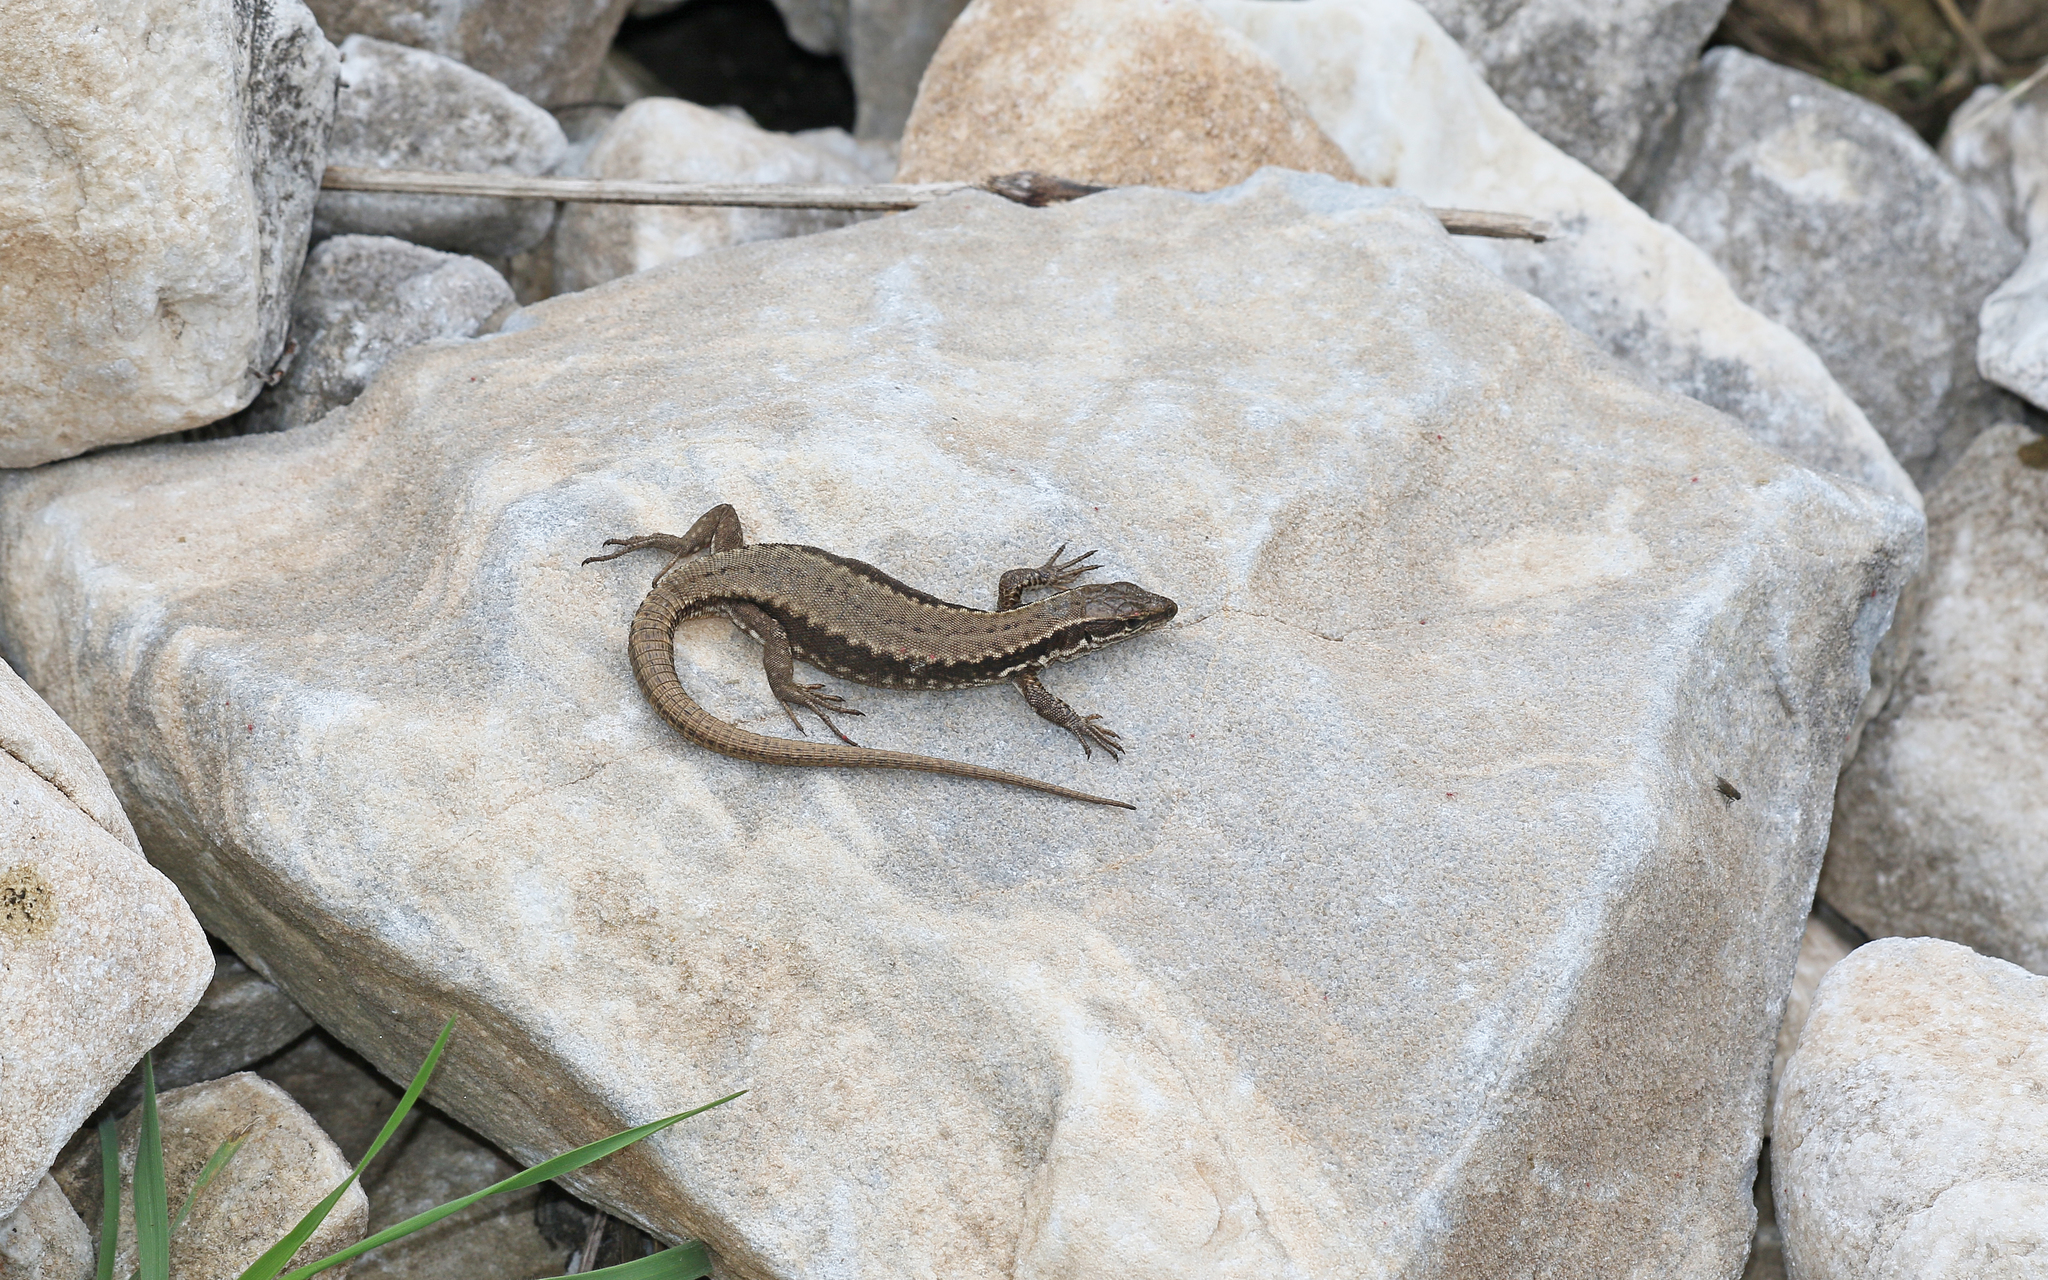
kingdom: Animalia
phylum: Chordata
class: Squamata
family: Lacertidae
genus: Podarcis
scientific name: Podarcis muralis
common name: Common wall lizard
